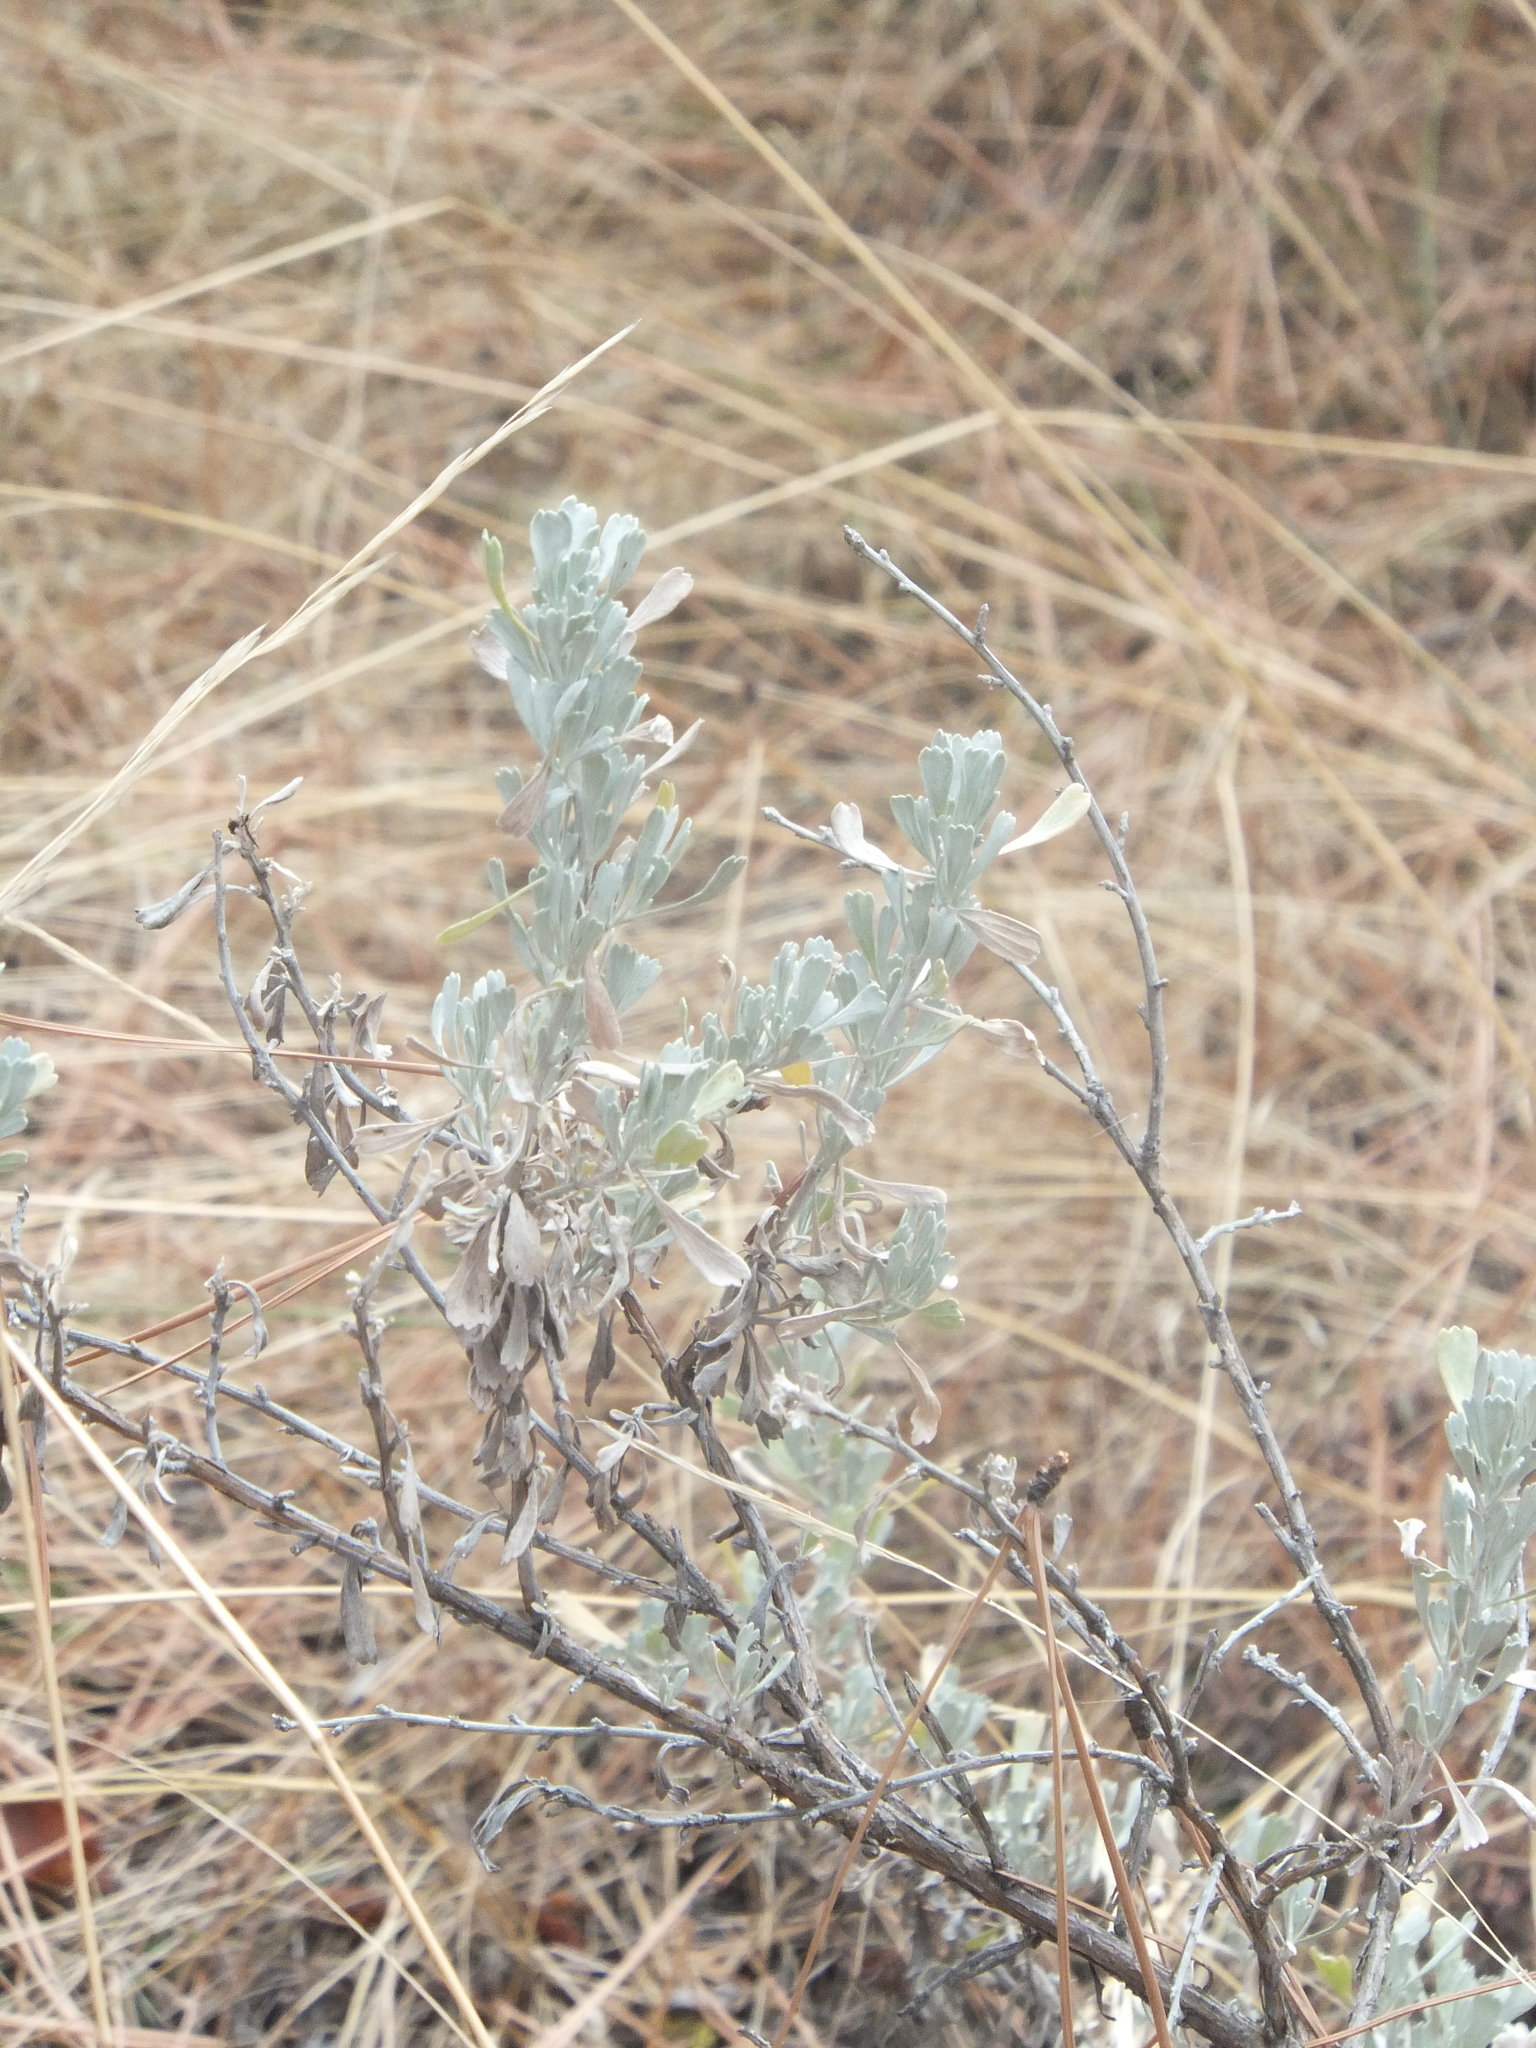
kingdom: Plantae
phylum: Tracheophyta
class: Magnoliopsida
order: Asterales
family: Asteraceae
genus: Artemisia
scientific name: Artemisia tridentata
